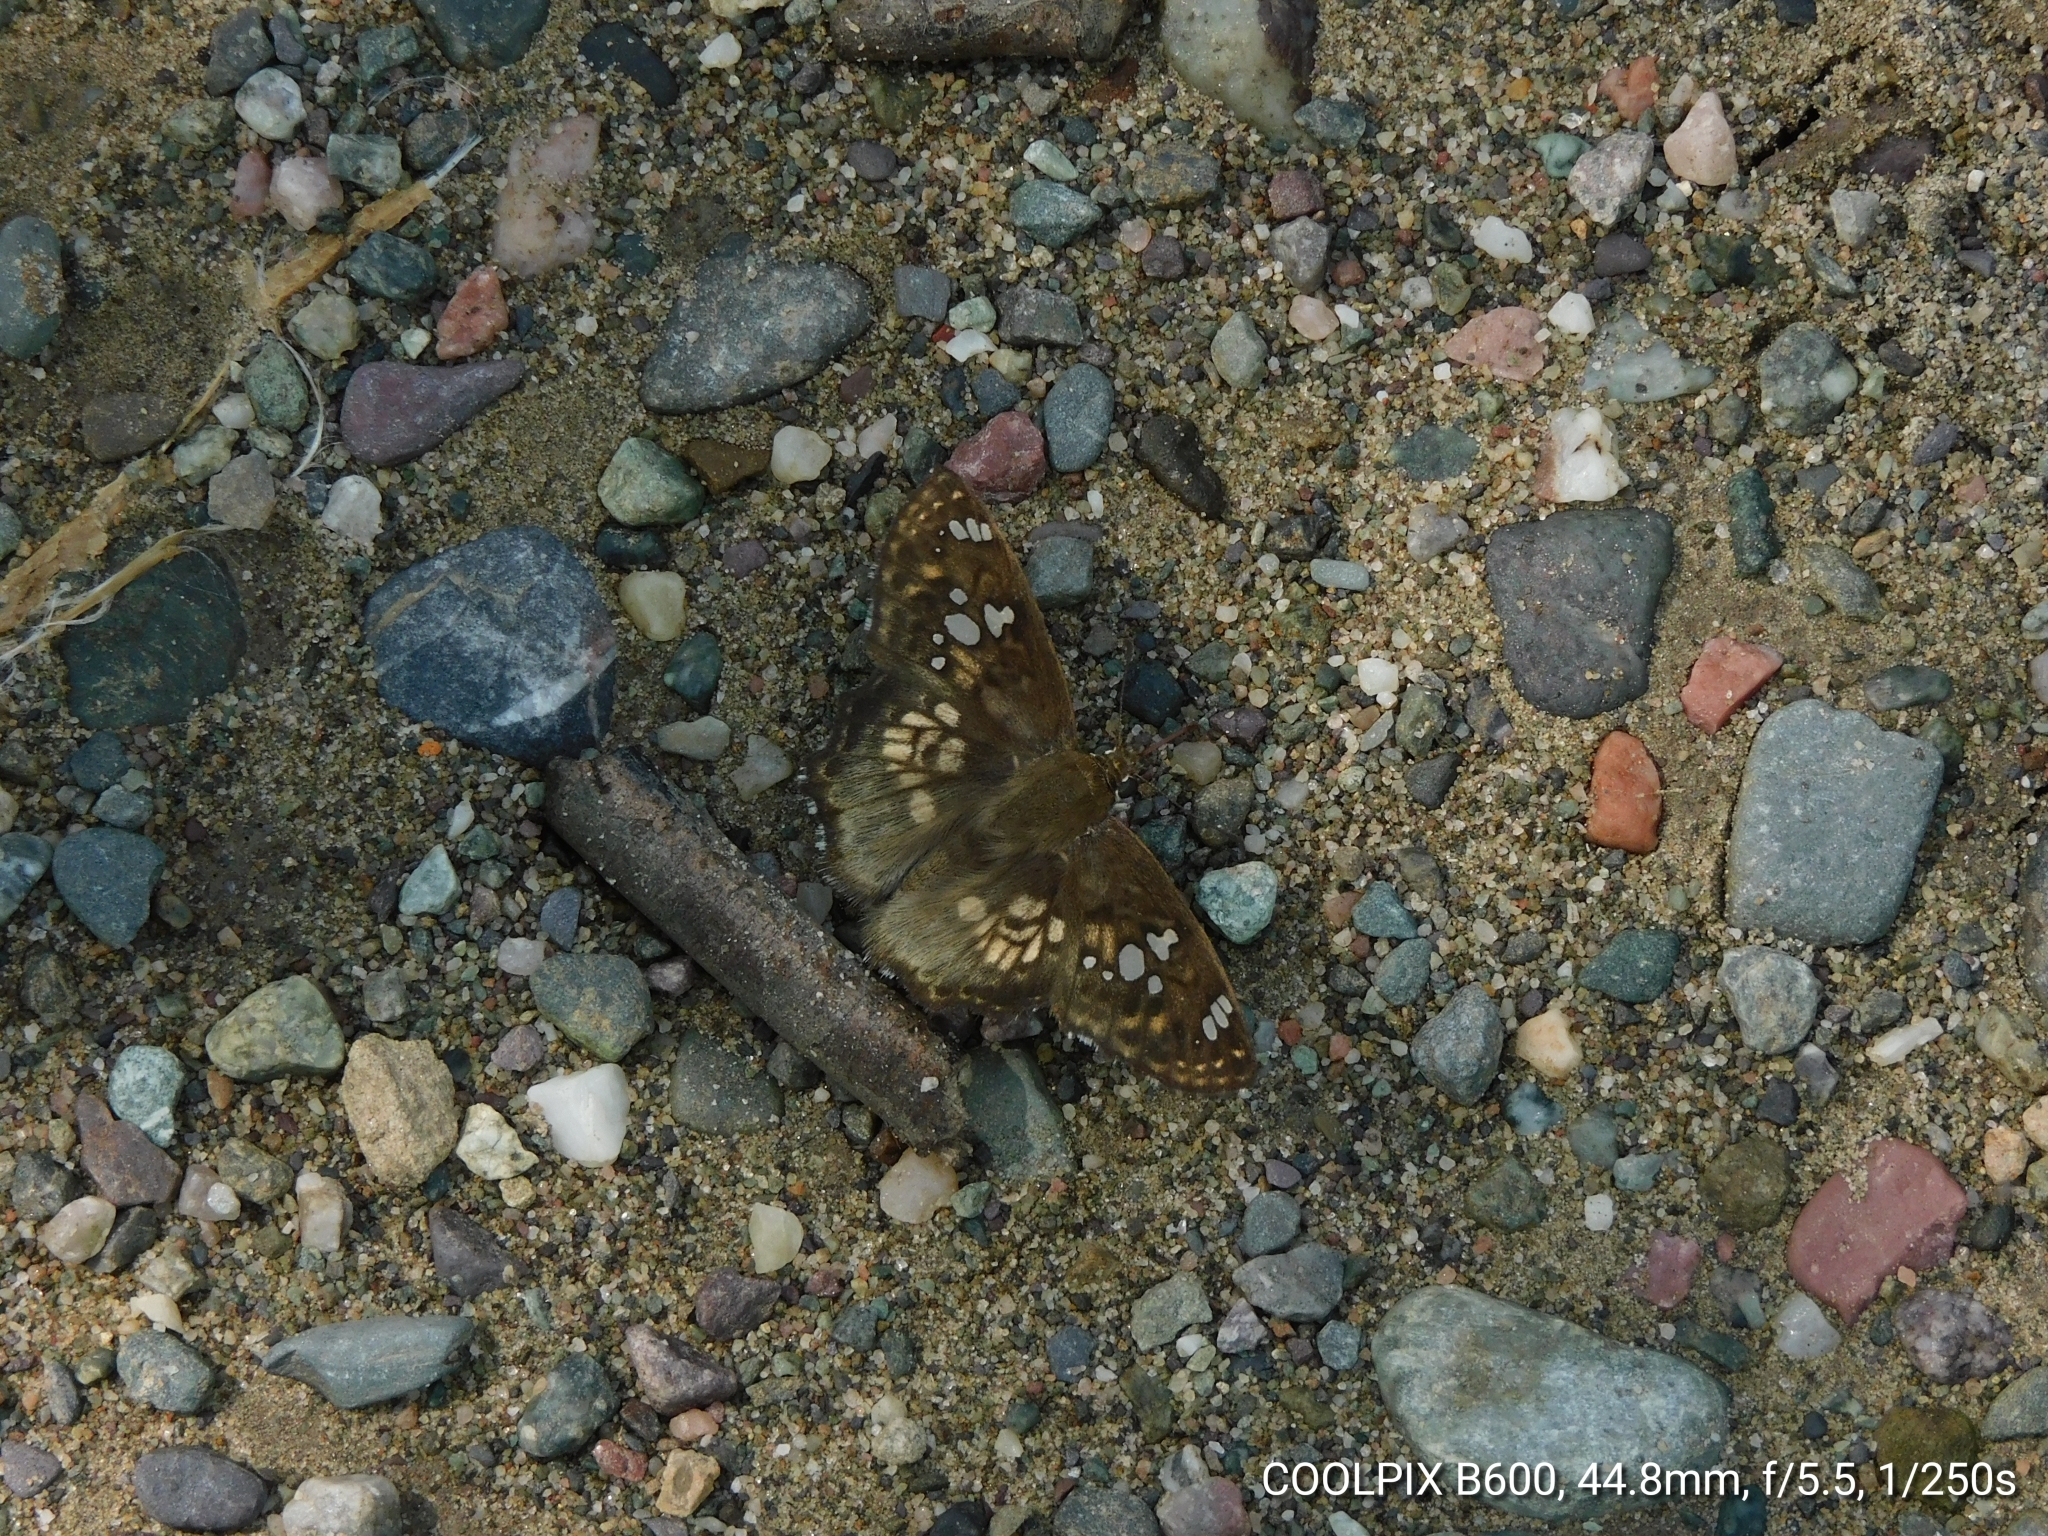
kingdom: Animalia
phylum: Arthropoda
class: Insecta
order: Lepidoptera
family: Hesperiidae
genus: Caprona
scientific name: Caprona ransonnettii
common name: Golden angle
